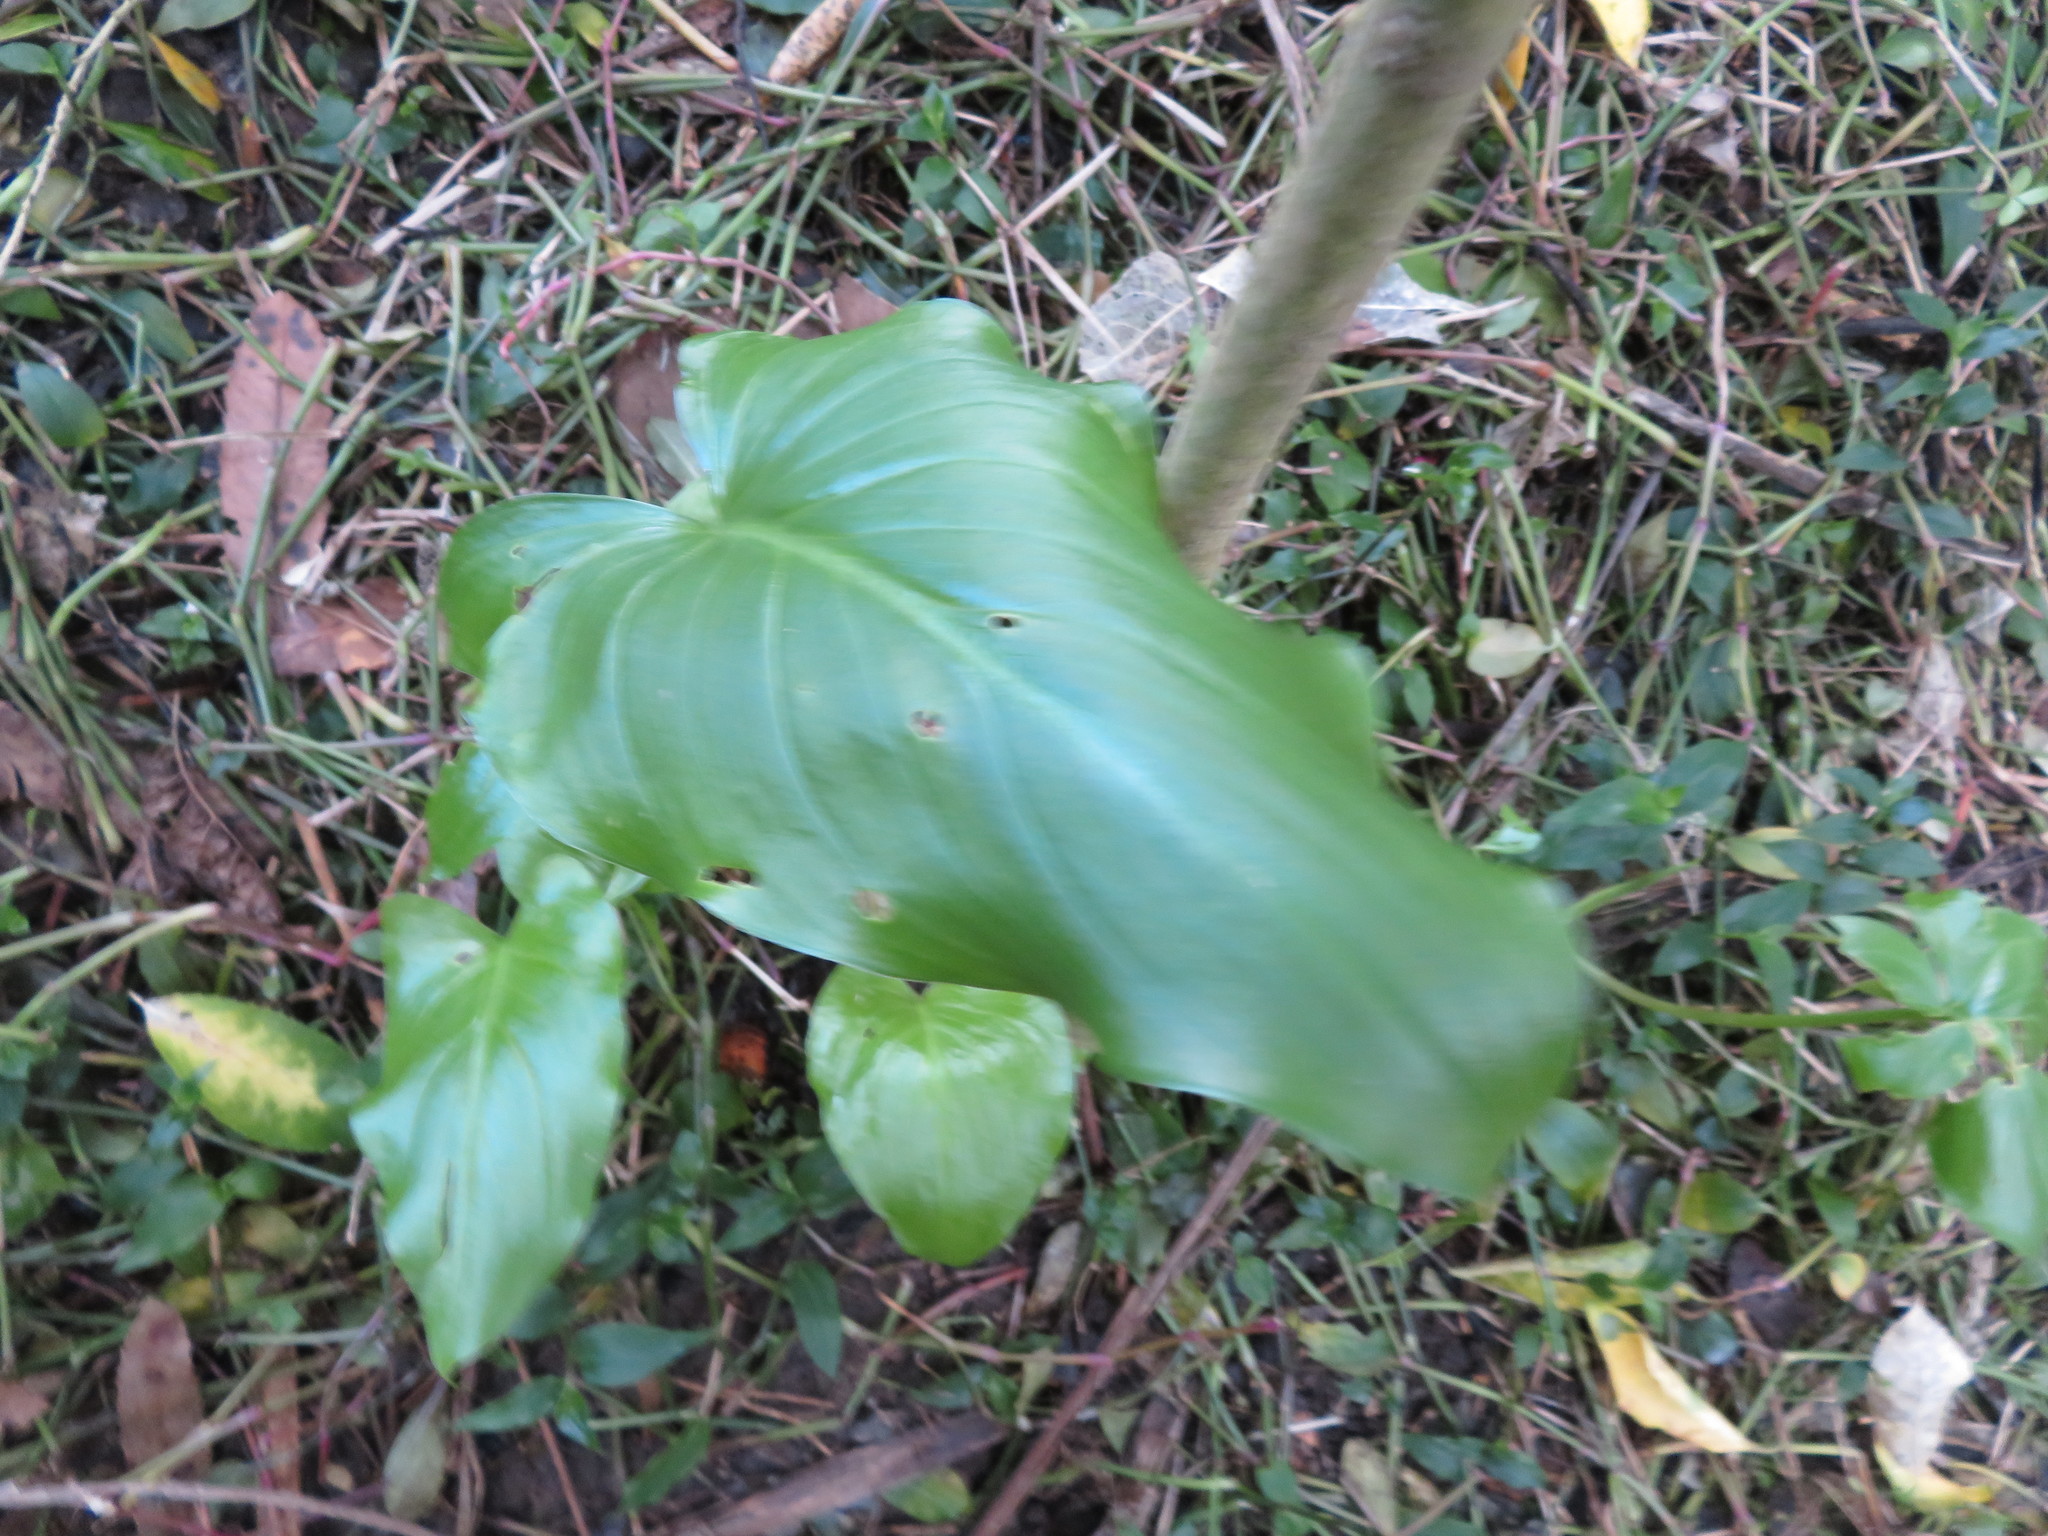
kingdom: Plantae
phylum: Tracheophyta
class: Liliopsida
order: Alismatales
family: Araceae
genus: Zantedeschia
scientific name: Zantedeschia aethiopica
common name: Altar-lily
